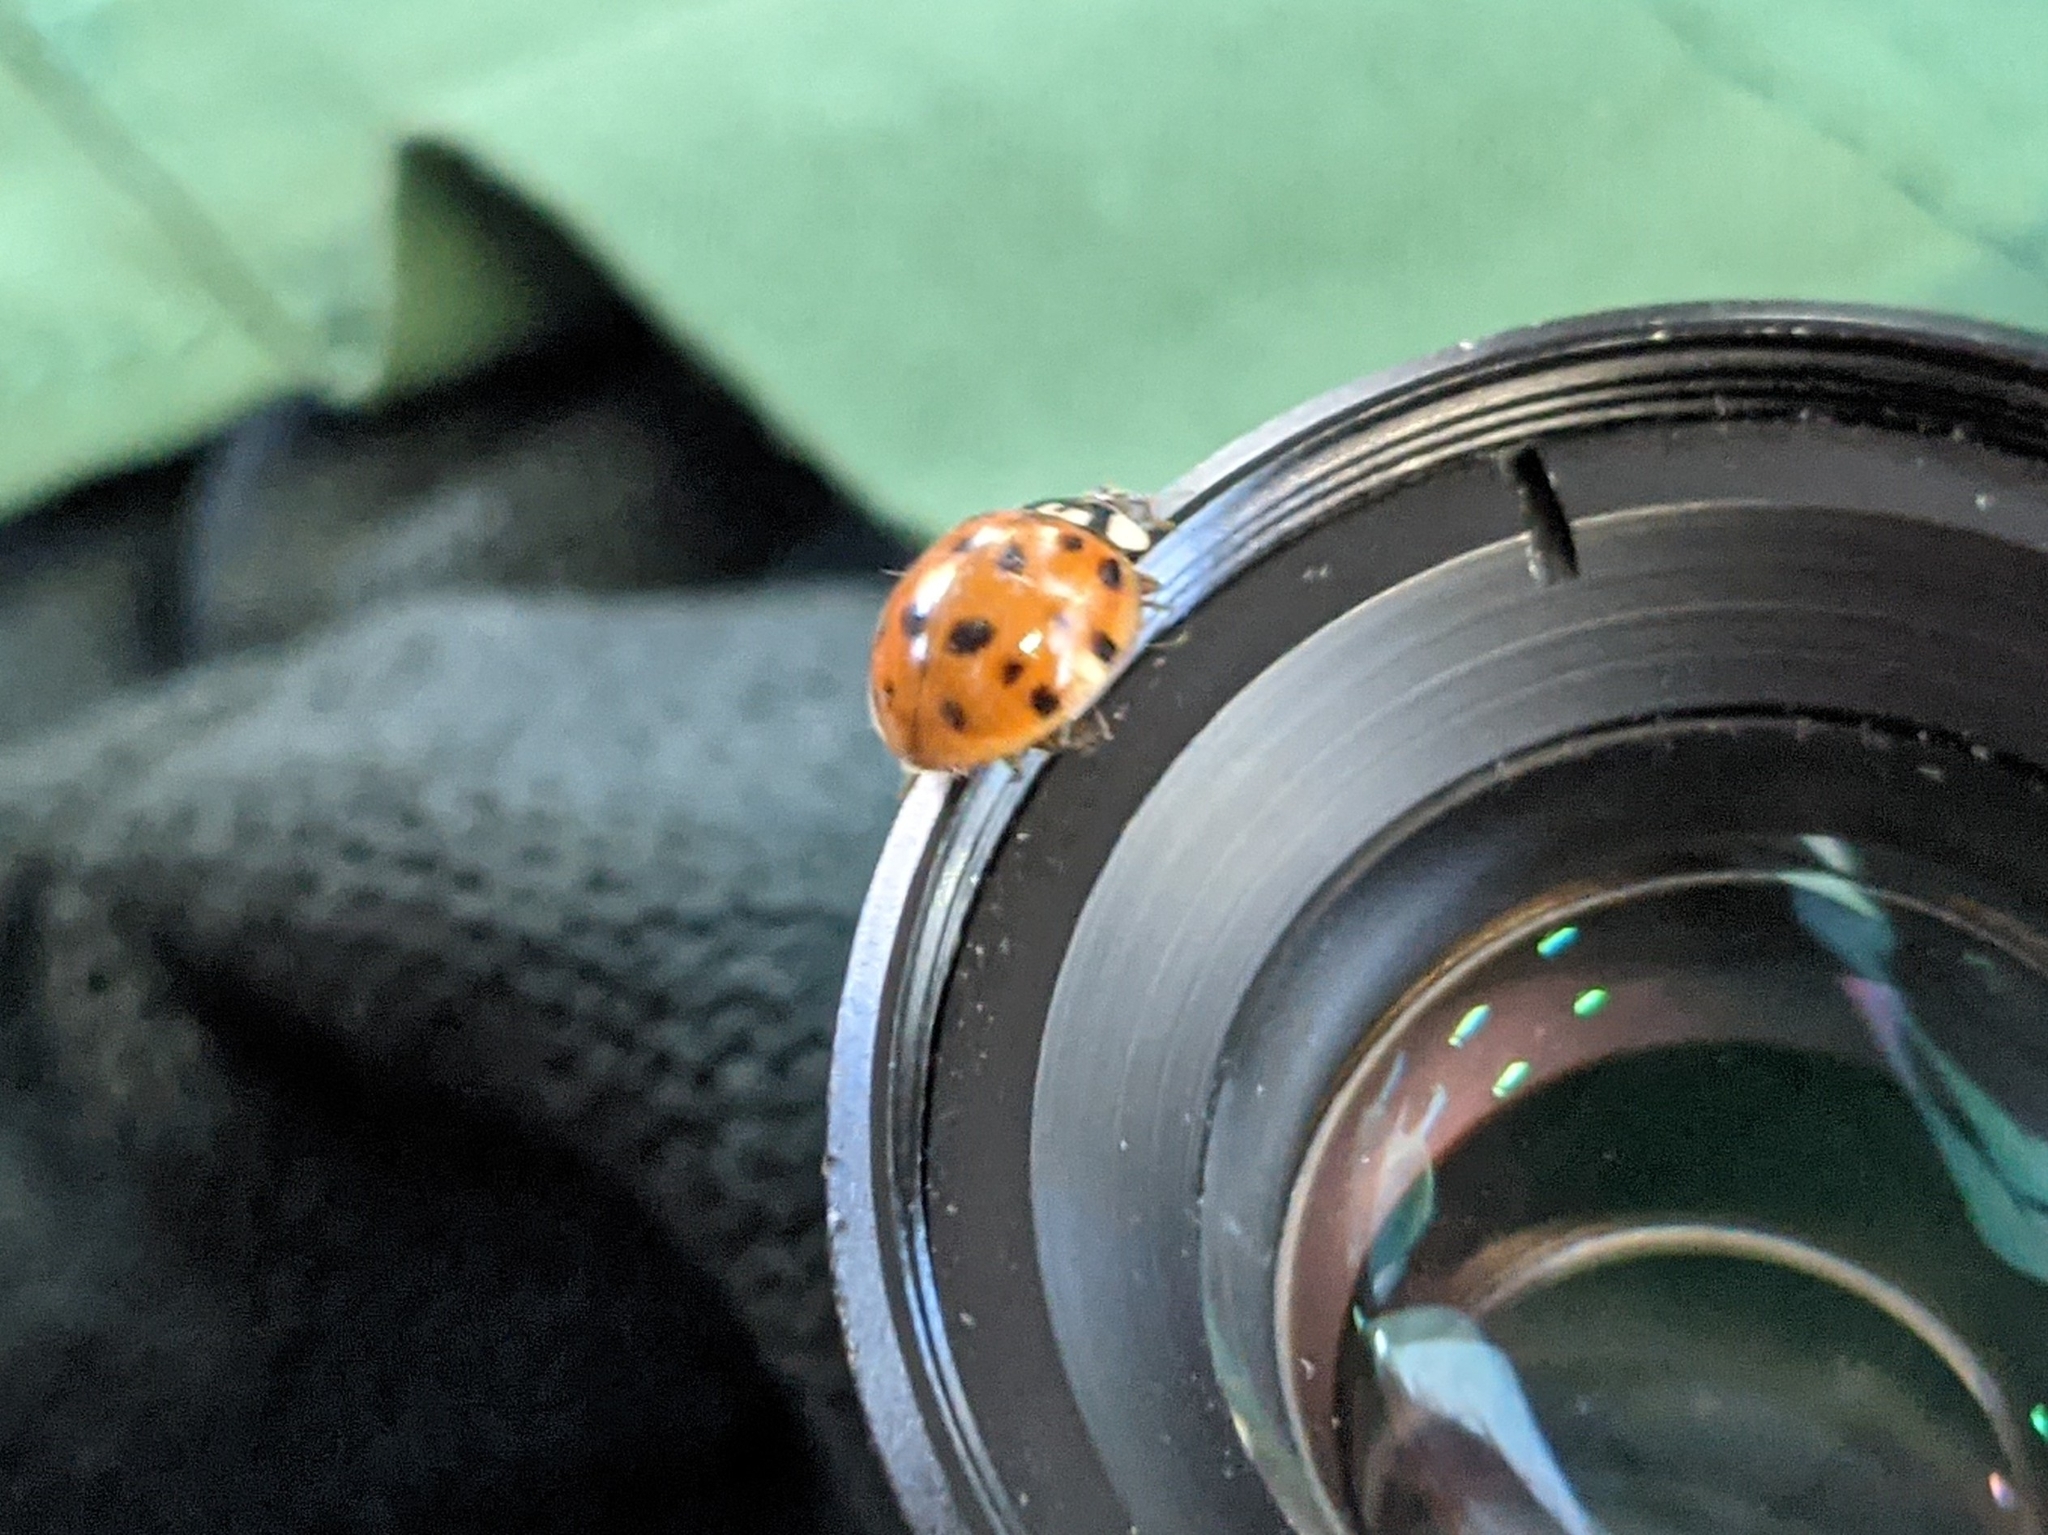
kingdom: Animalia
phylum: Arthropoda
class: Insecta
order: Coleoptera
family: Coccinellidae
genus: Harmonia
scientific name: Harmonia axyridis
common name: Harlequin ladybird
